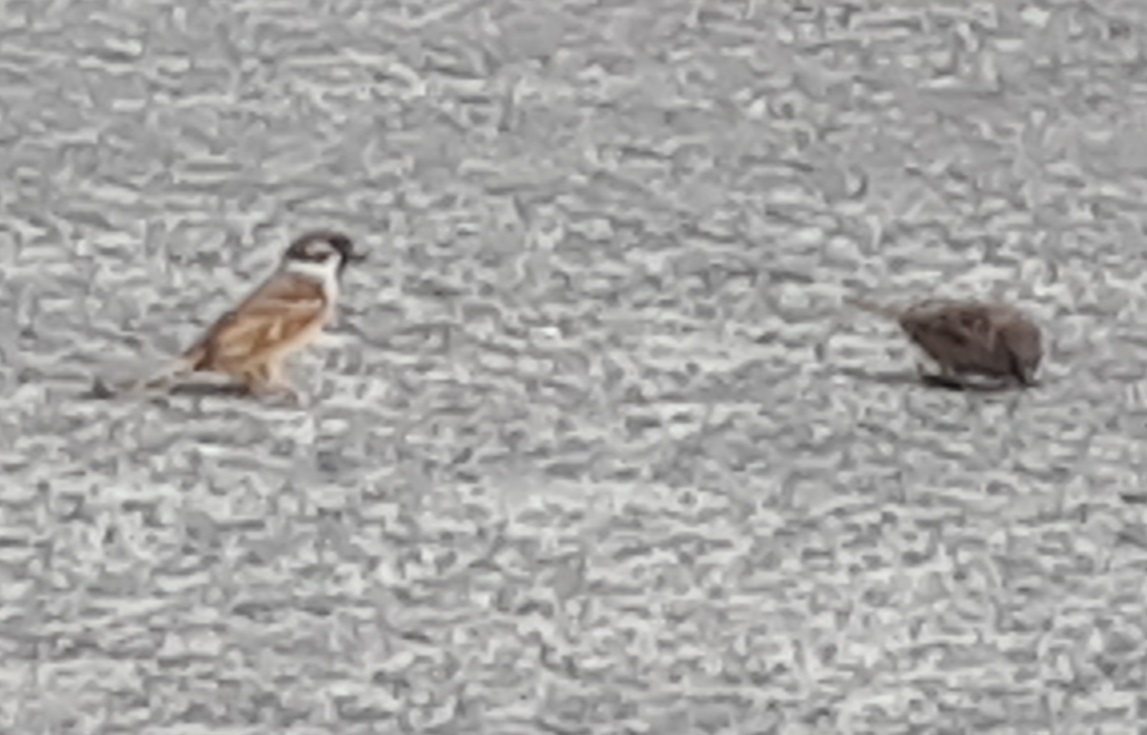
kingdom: Animalia
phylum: Chordata
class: Aves
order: Passeriformes
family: Passeridae
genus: Passer
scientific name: Passer montanus
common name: Eurasian tree sparrow
